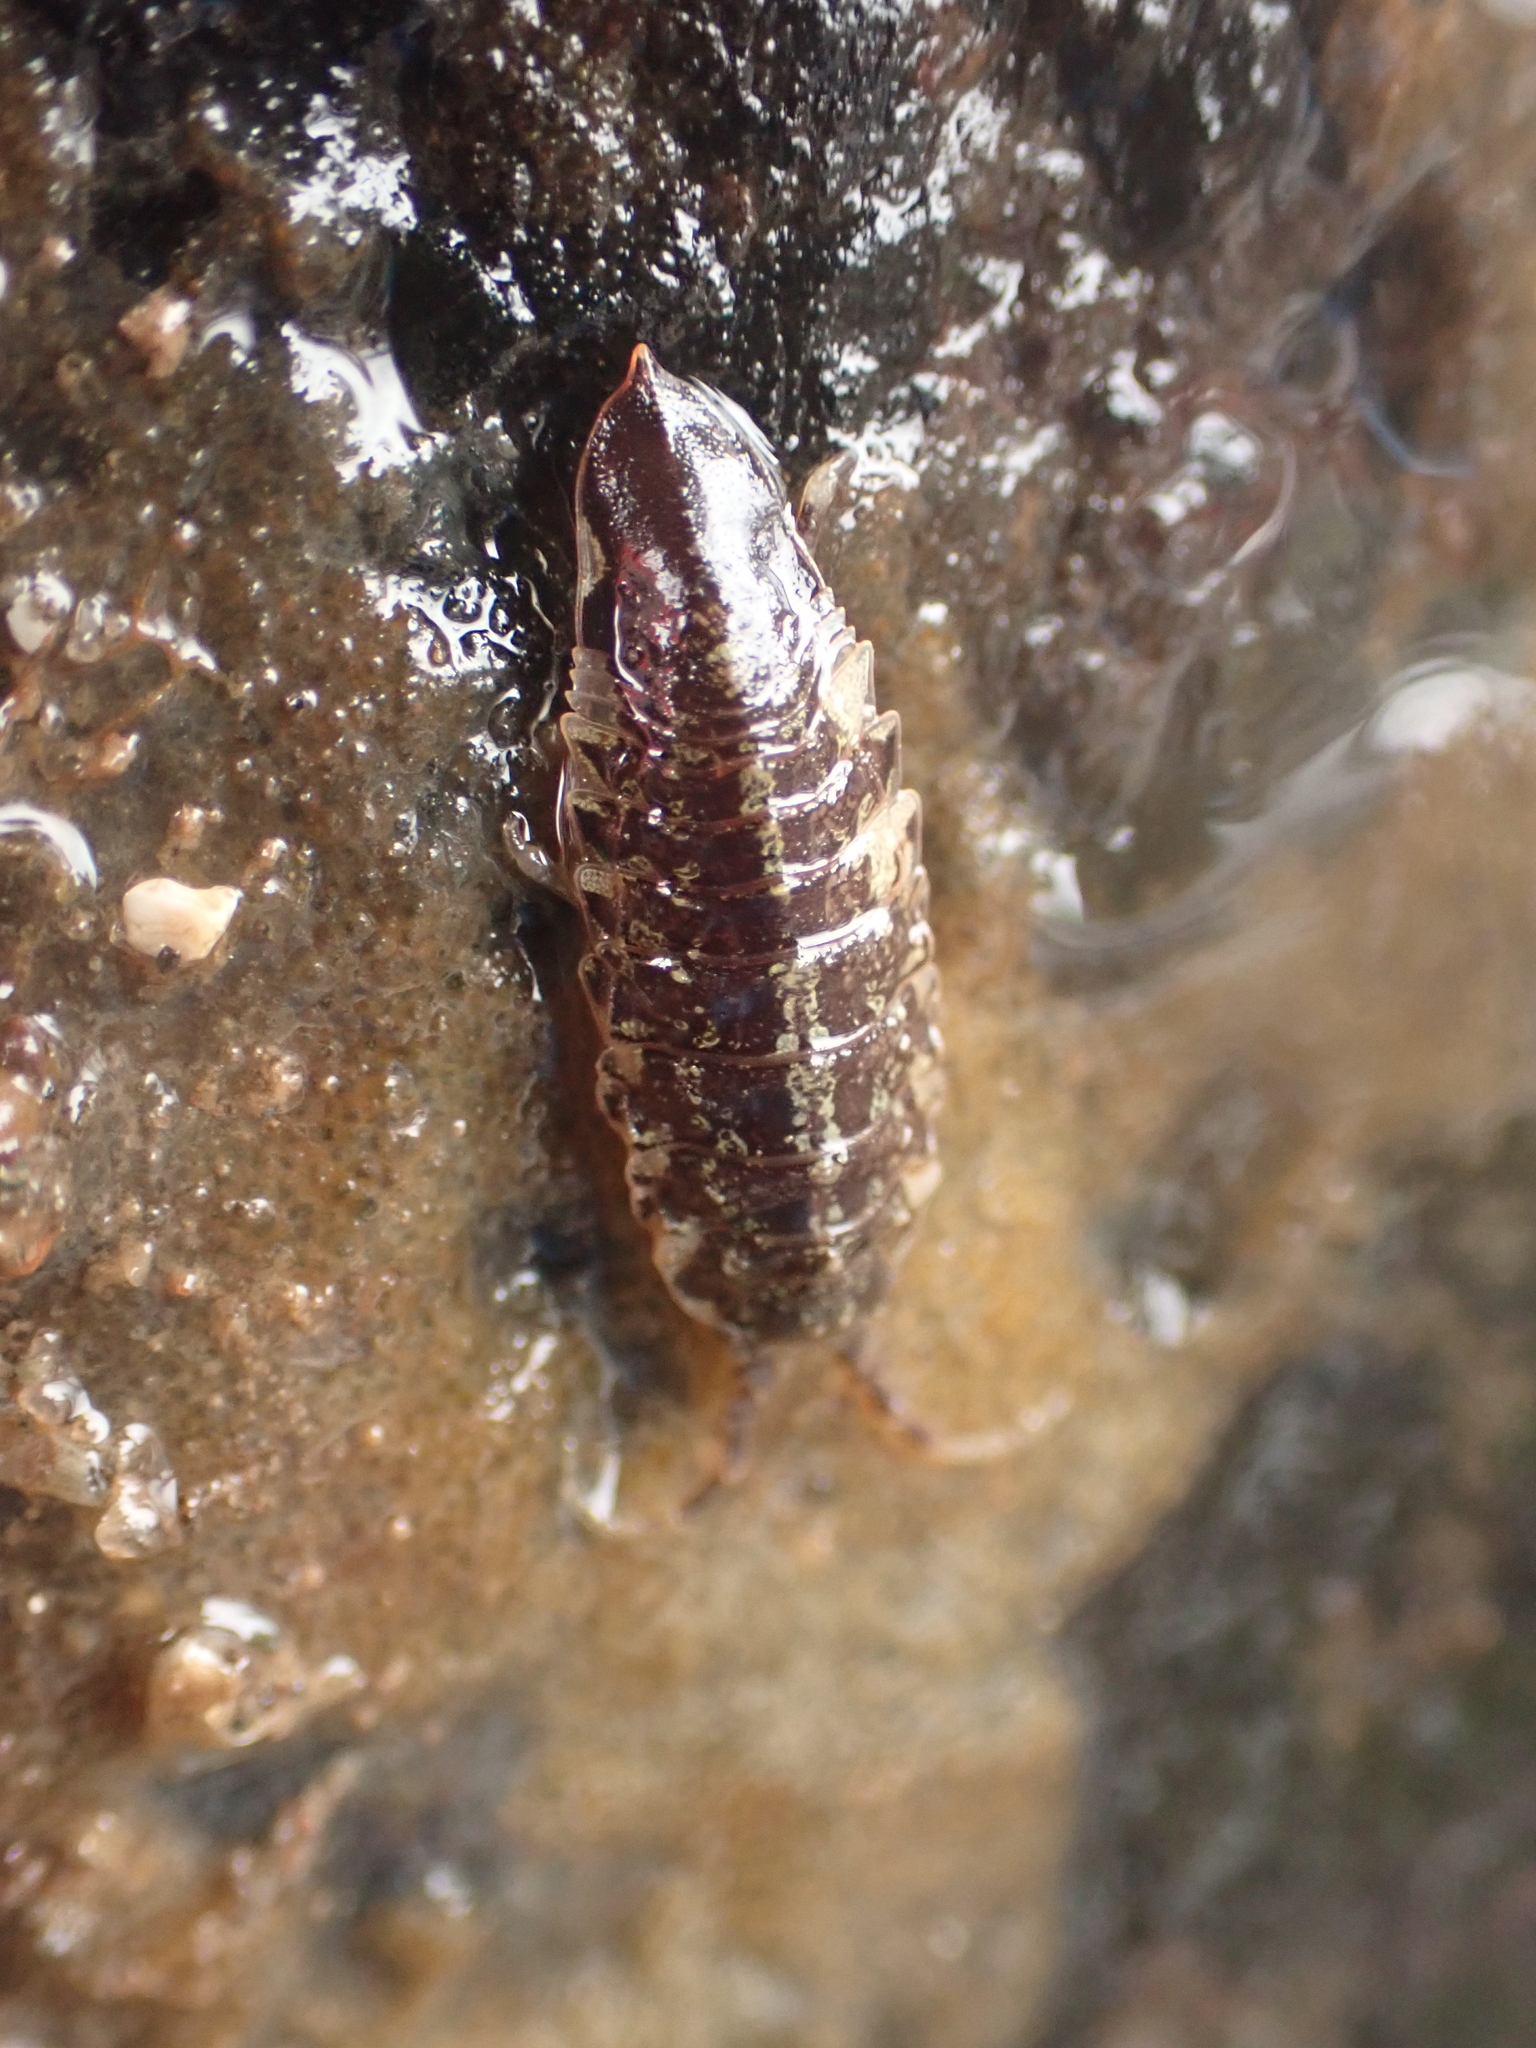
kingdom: Animalia
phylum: Arthropoda
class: Malacostraca
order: Isopoda
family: Idoteidae
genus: Idotea
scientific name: Idotea phosphorea
